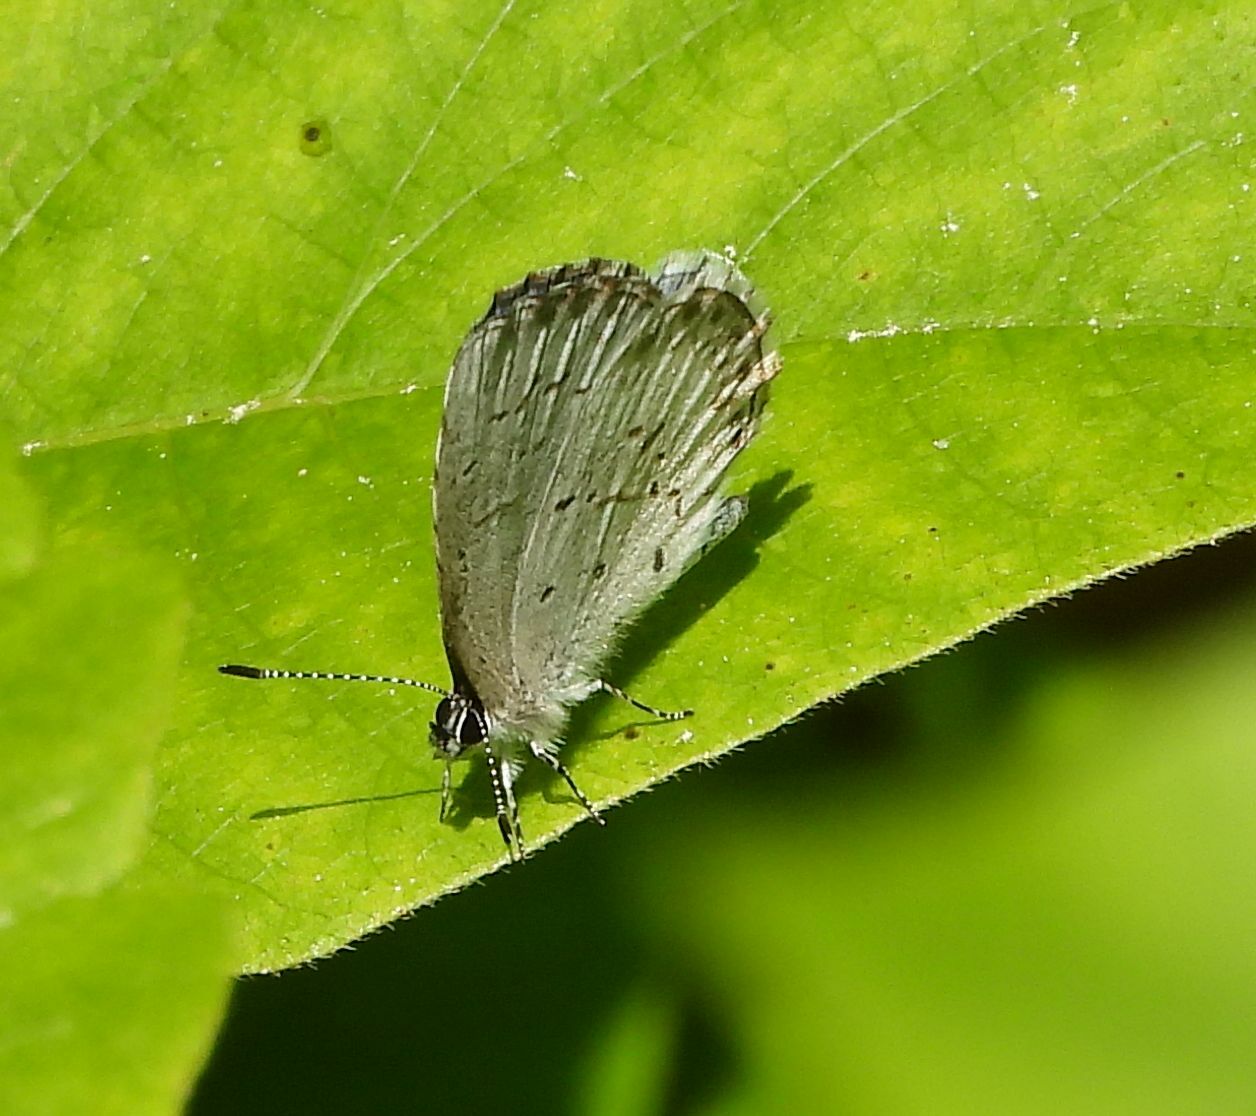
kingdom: Animalia
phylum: Arthropoda
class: Insecta
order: Lepidoptera
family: Lycaenidae
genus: Celastrina
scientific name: Celastrina lucia
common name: Lucia azure
